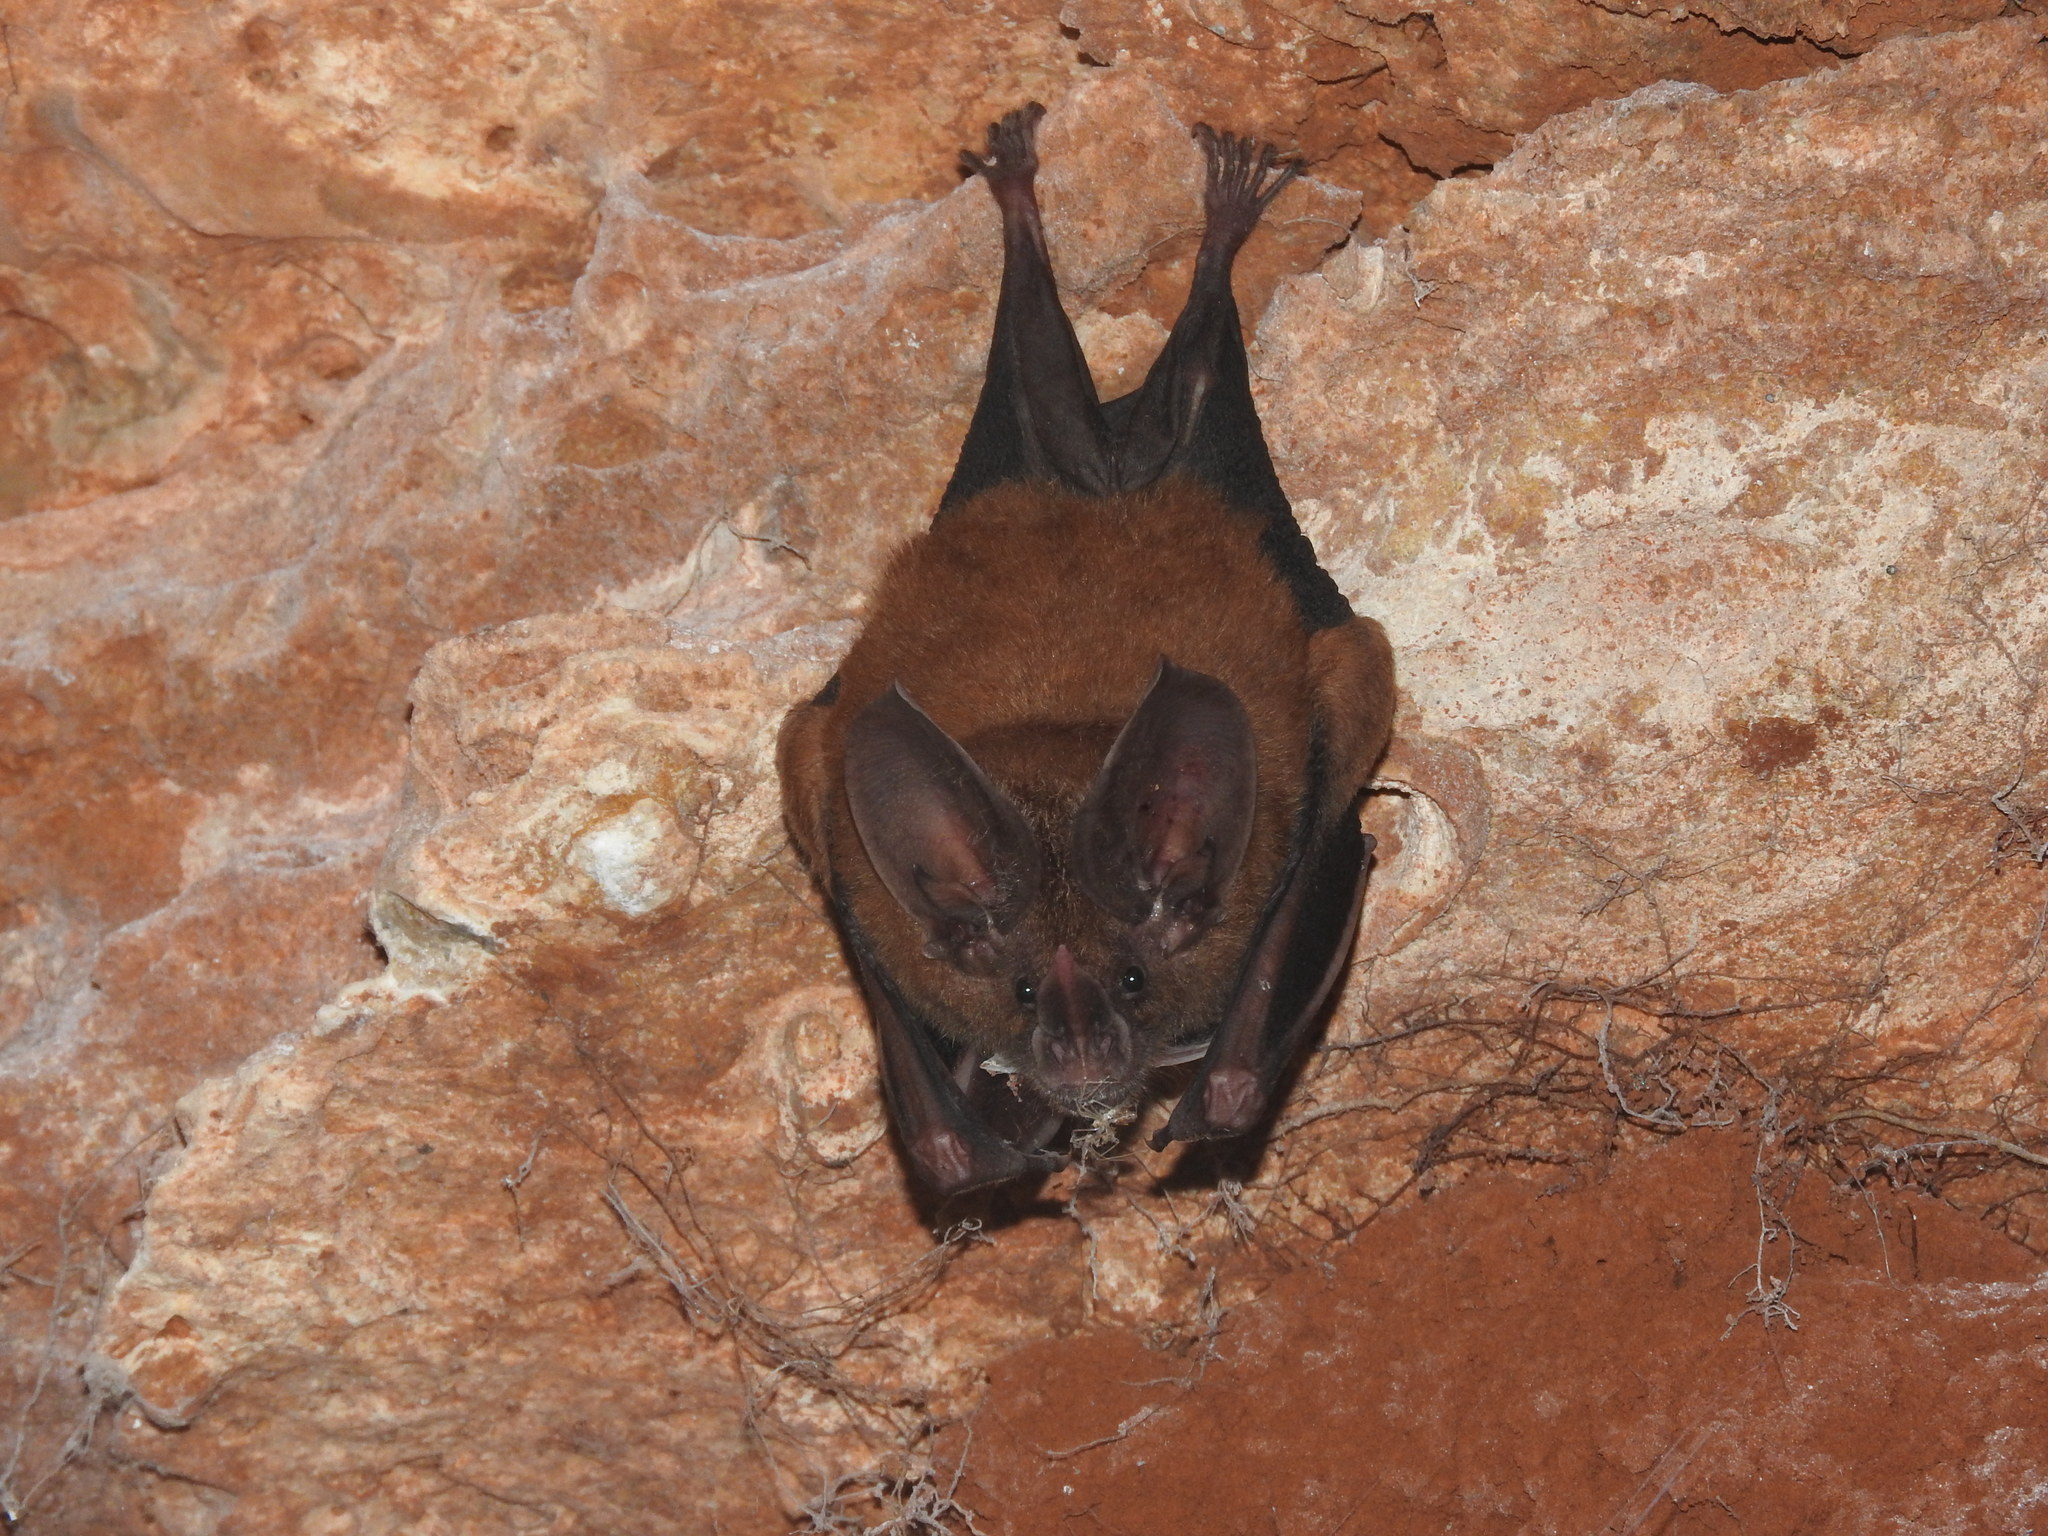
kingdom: Animalia
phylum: Chordata
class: Mammalia
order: Chiroptera
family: Phyllostomidae
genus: Mimon
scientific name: Mimon cozumelae
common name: Cozumelan golden bat
